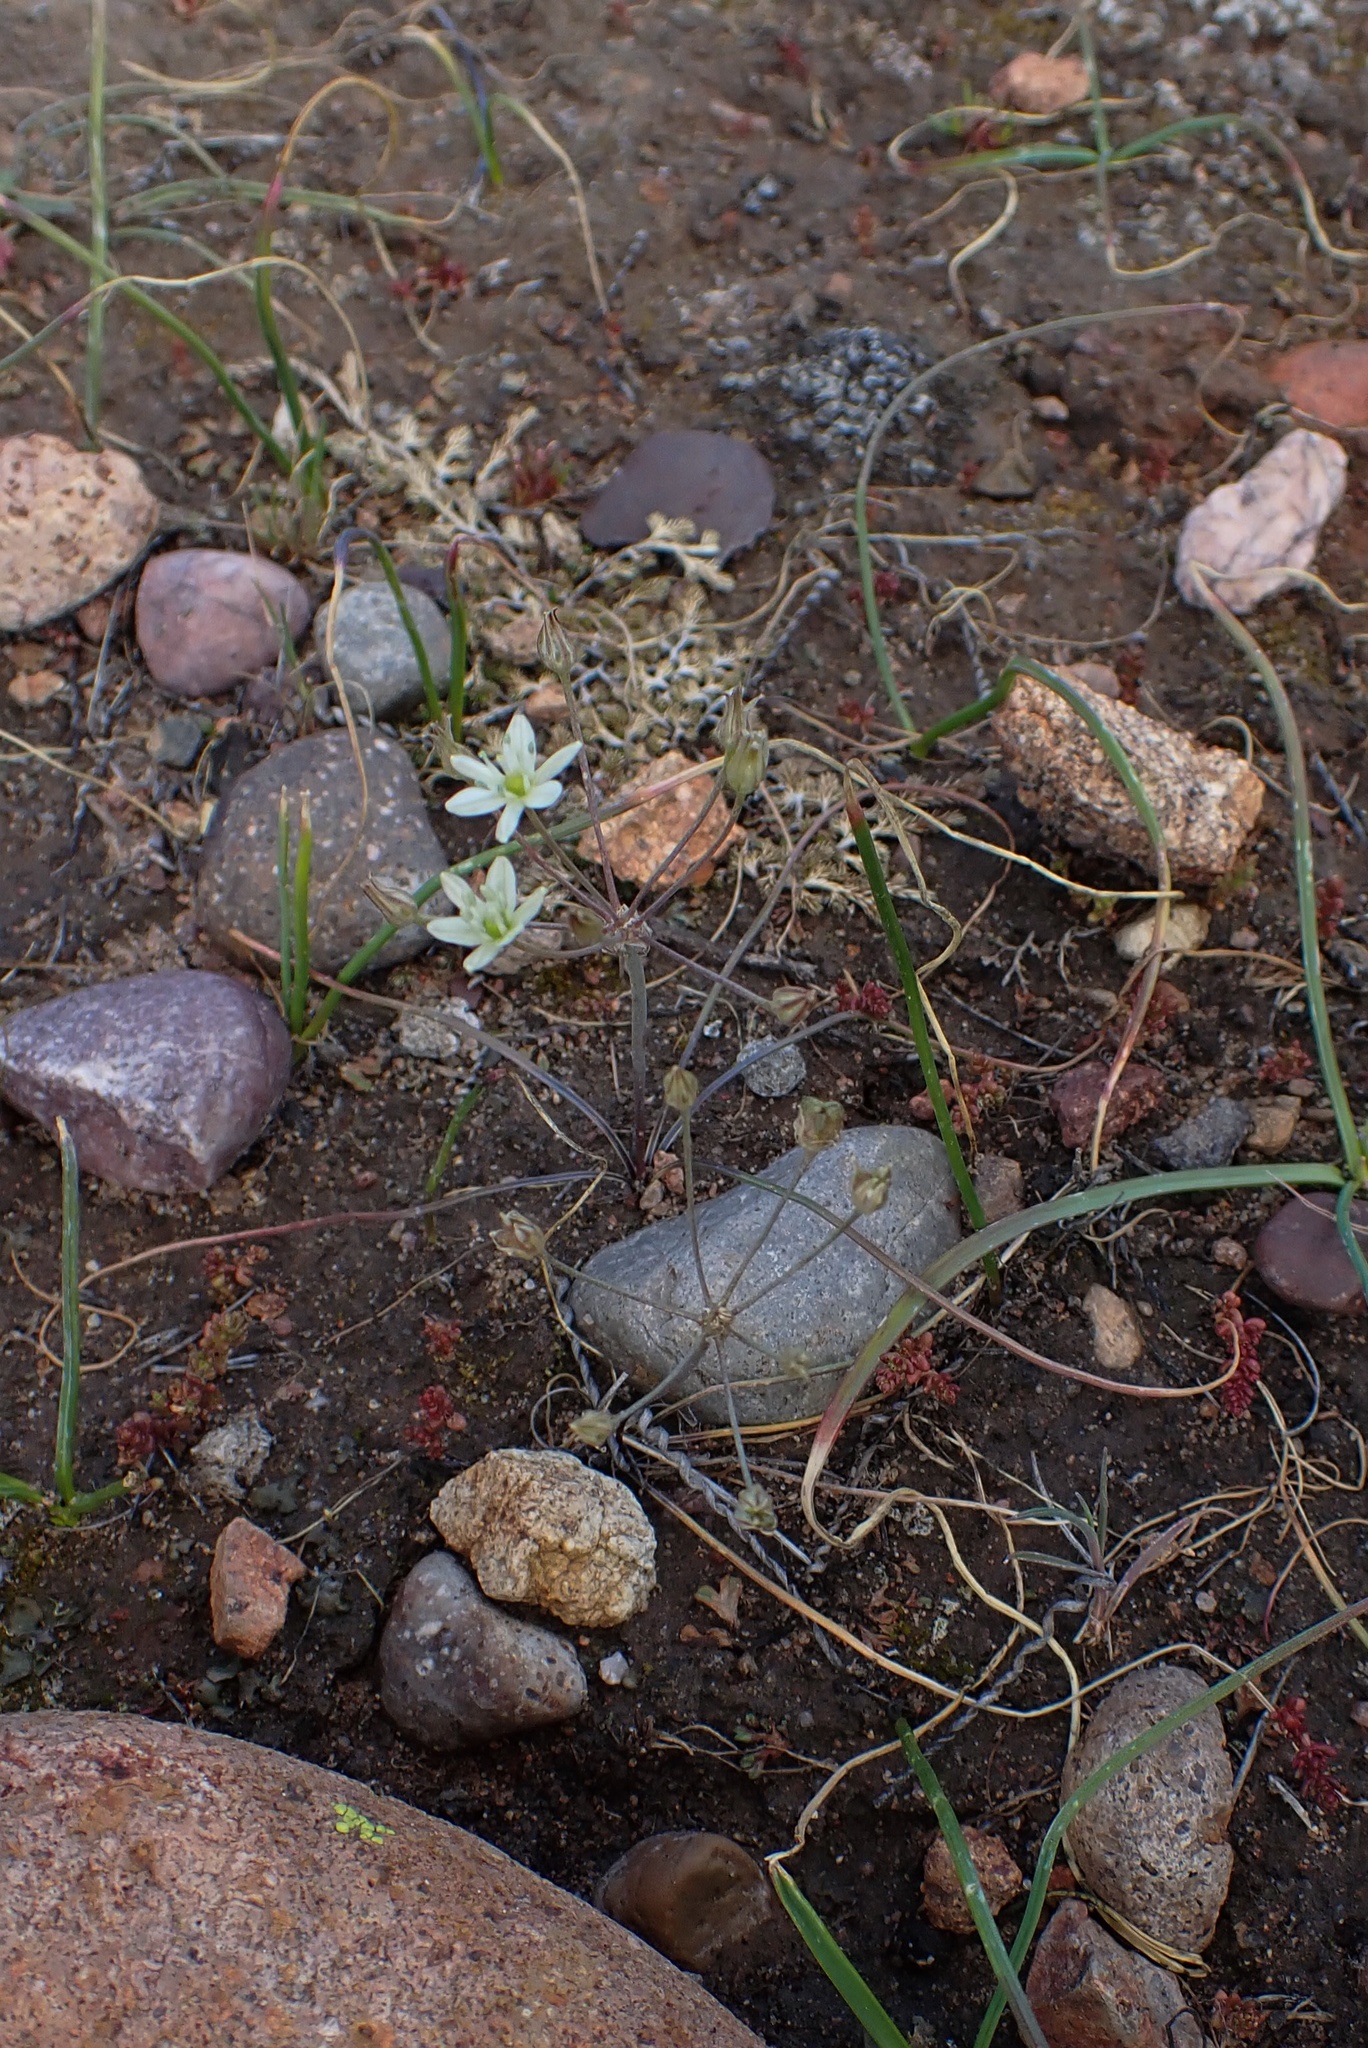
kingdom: Plantae
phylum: Tracheophyta
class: Liliopsida
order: Asparagales
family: Asparagaceae
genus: Muilla
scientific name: Muilla maritima
